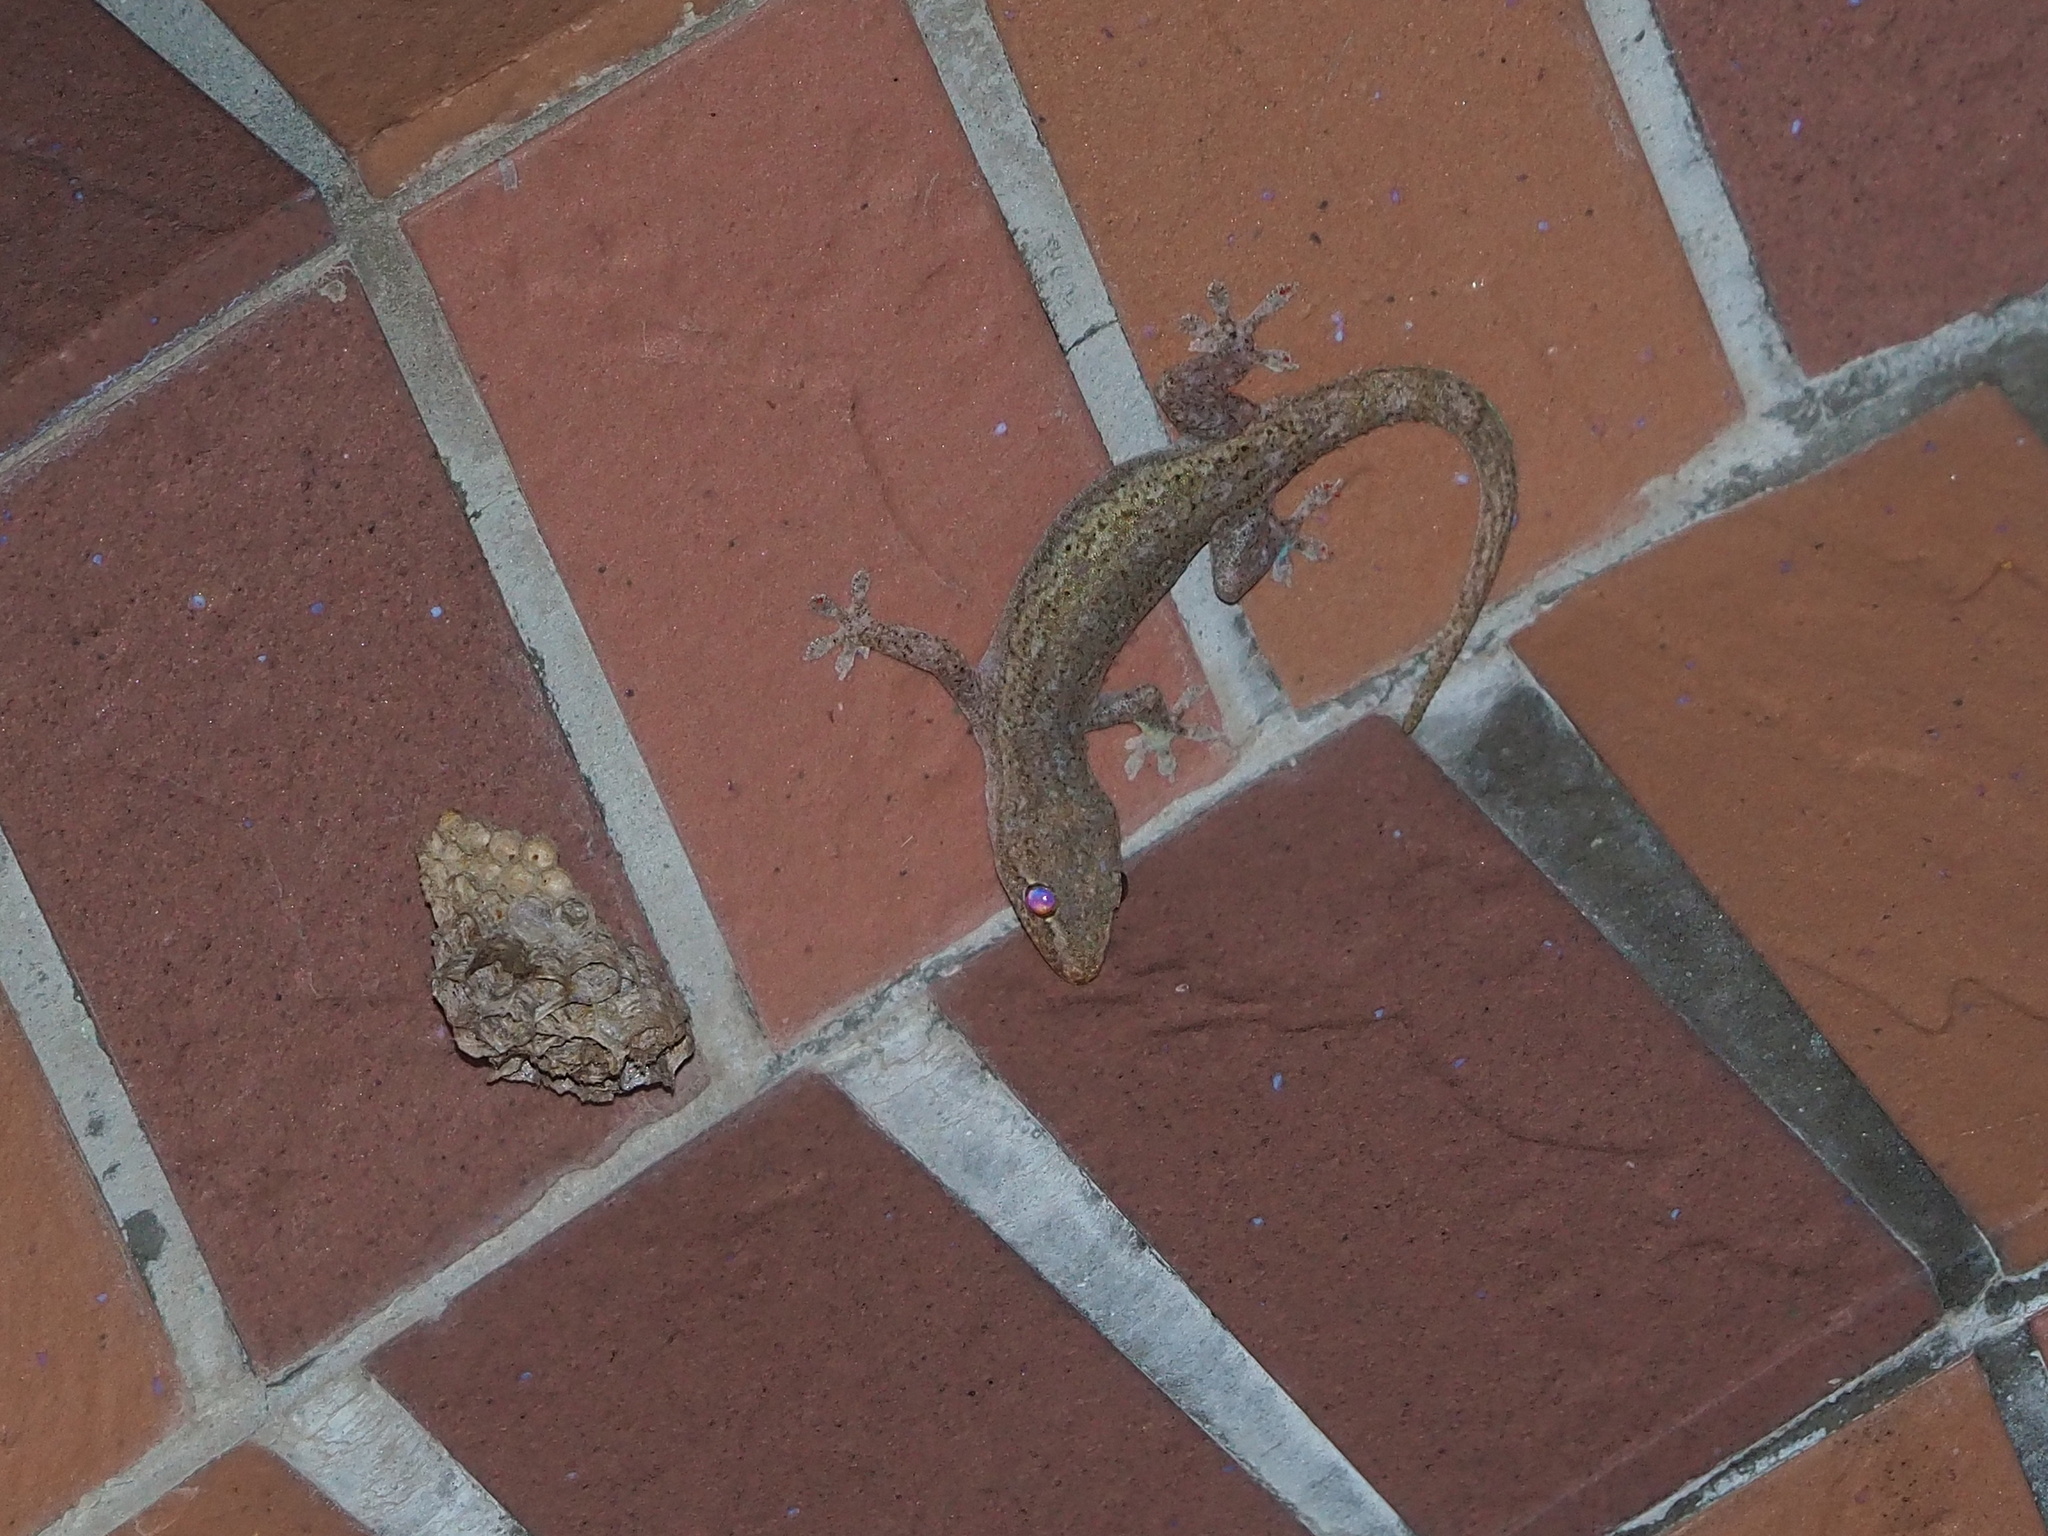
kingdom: Animalia
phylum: Chordata
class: Squamata
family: Gekkonidae
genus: Hemidactylus
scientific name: Hemidactylus frenatus
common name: Common house gecko
